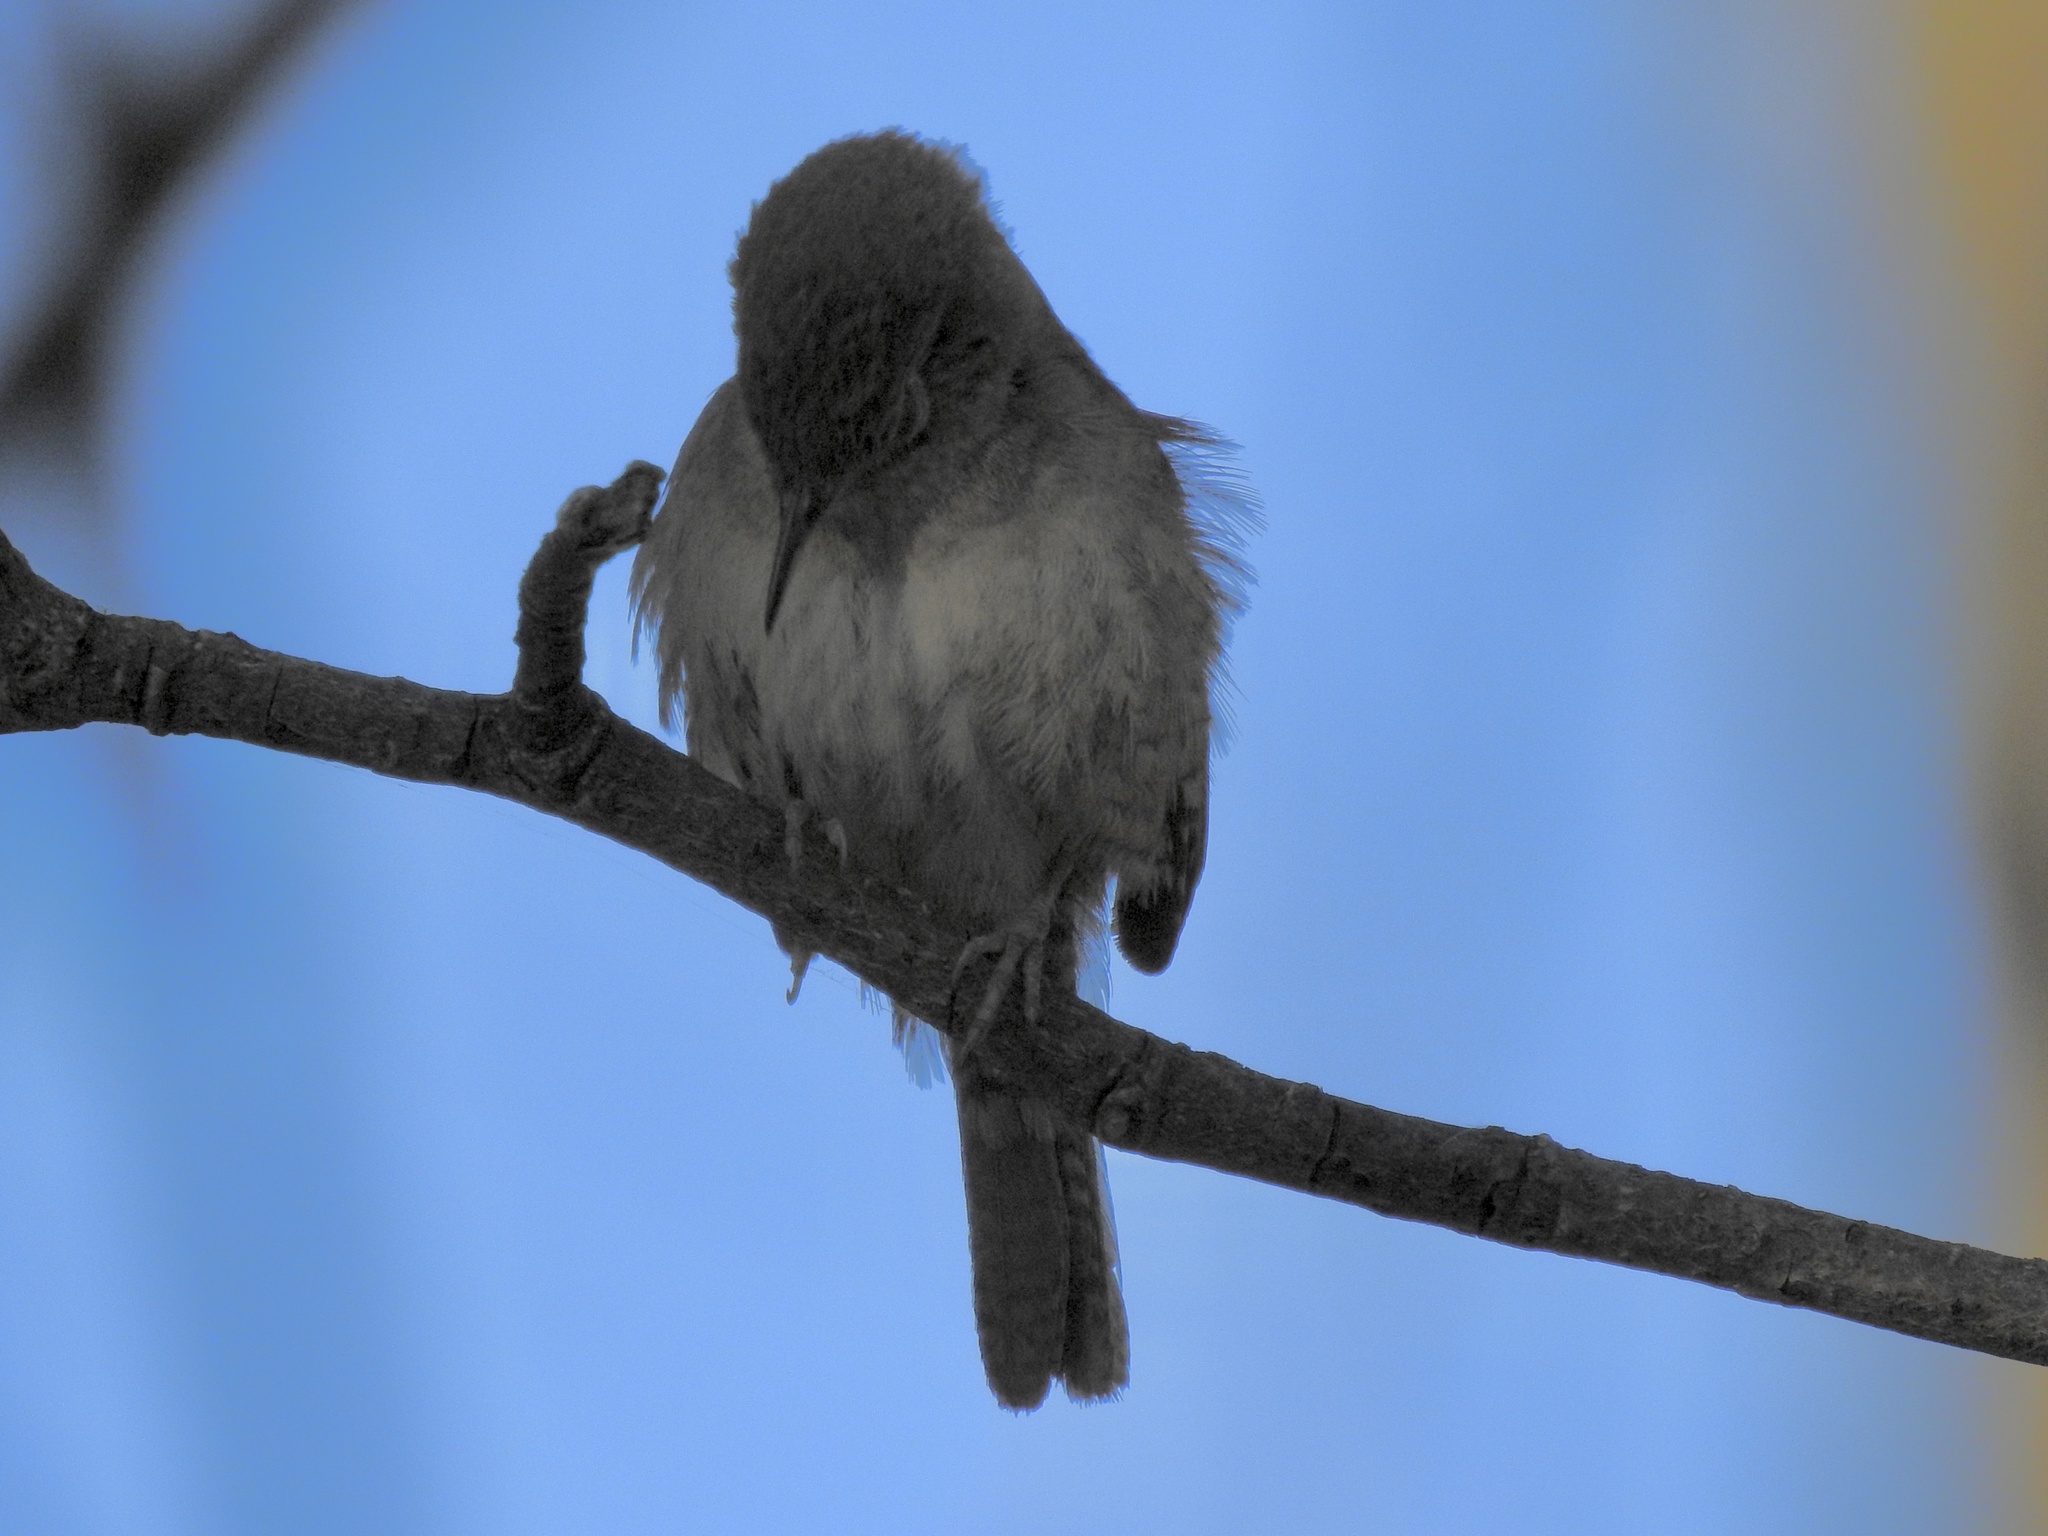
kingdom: Animalia
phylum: Chordata
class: Aves
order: Passeriformes
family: Troglodytidae
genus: Troglodytes
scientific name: Troglodytes aedon
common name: House wren
